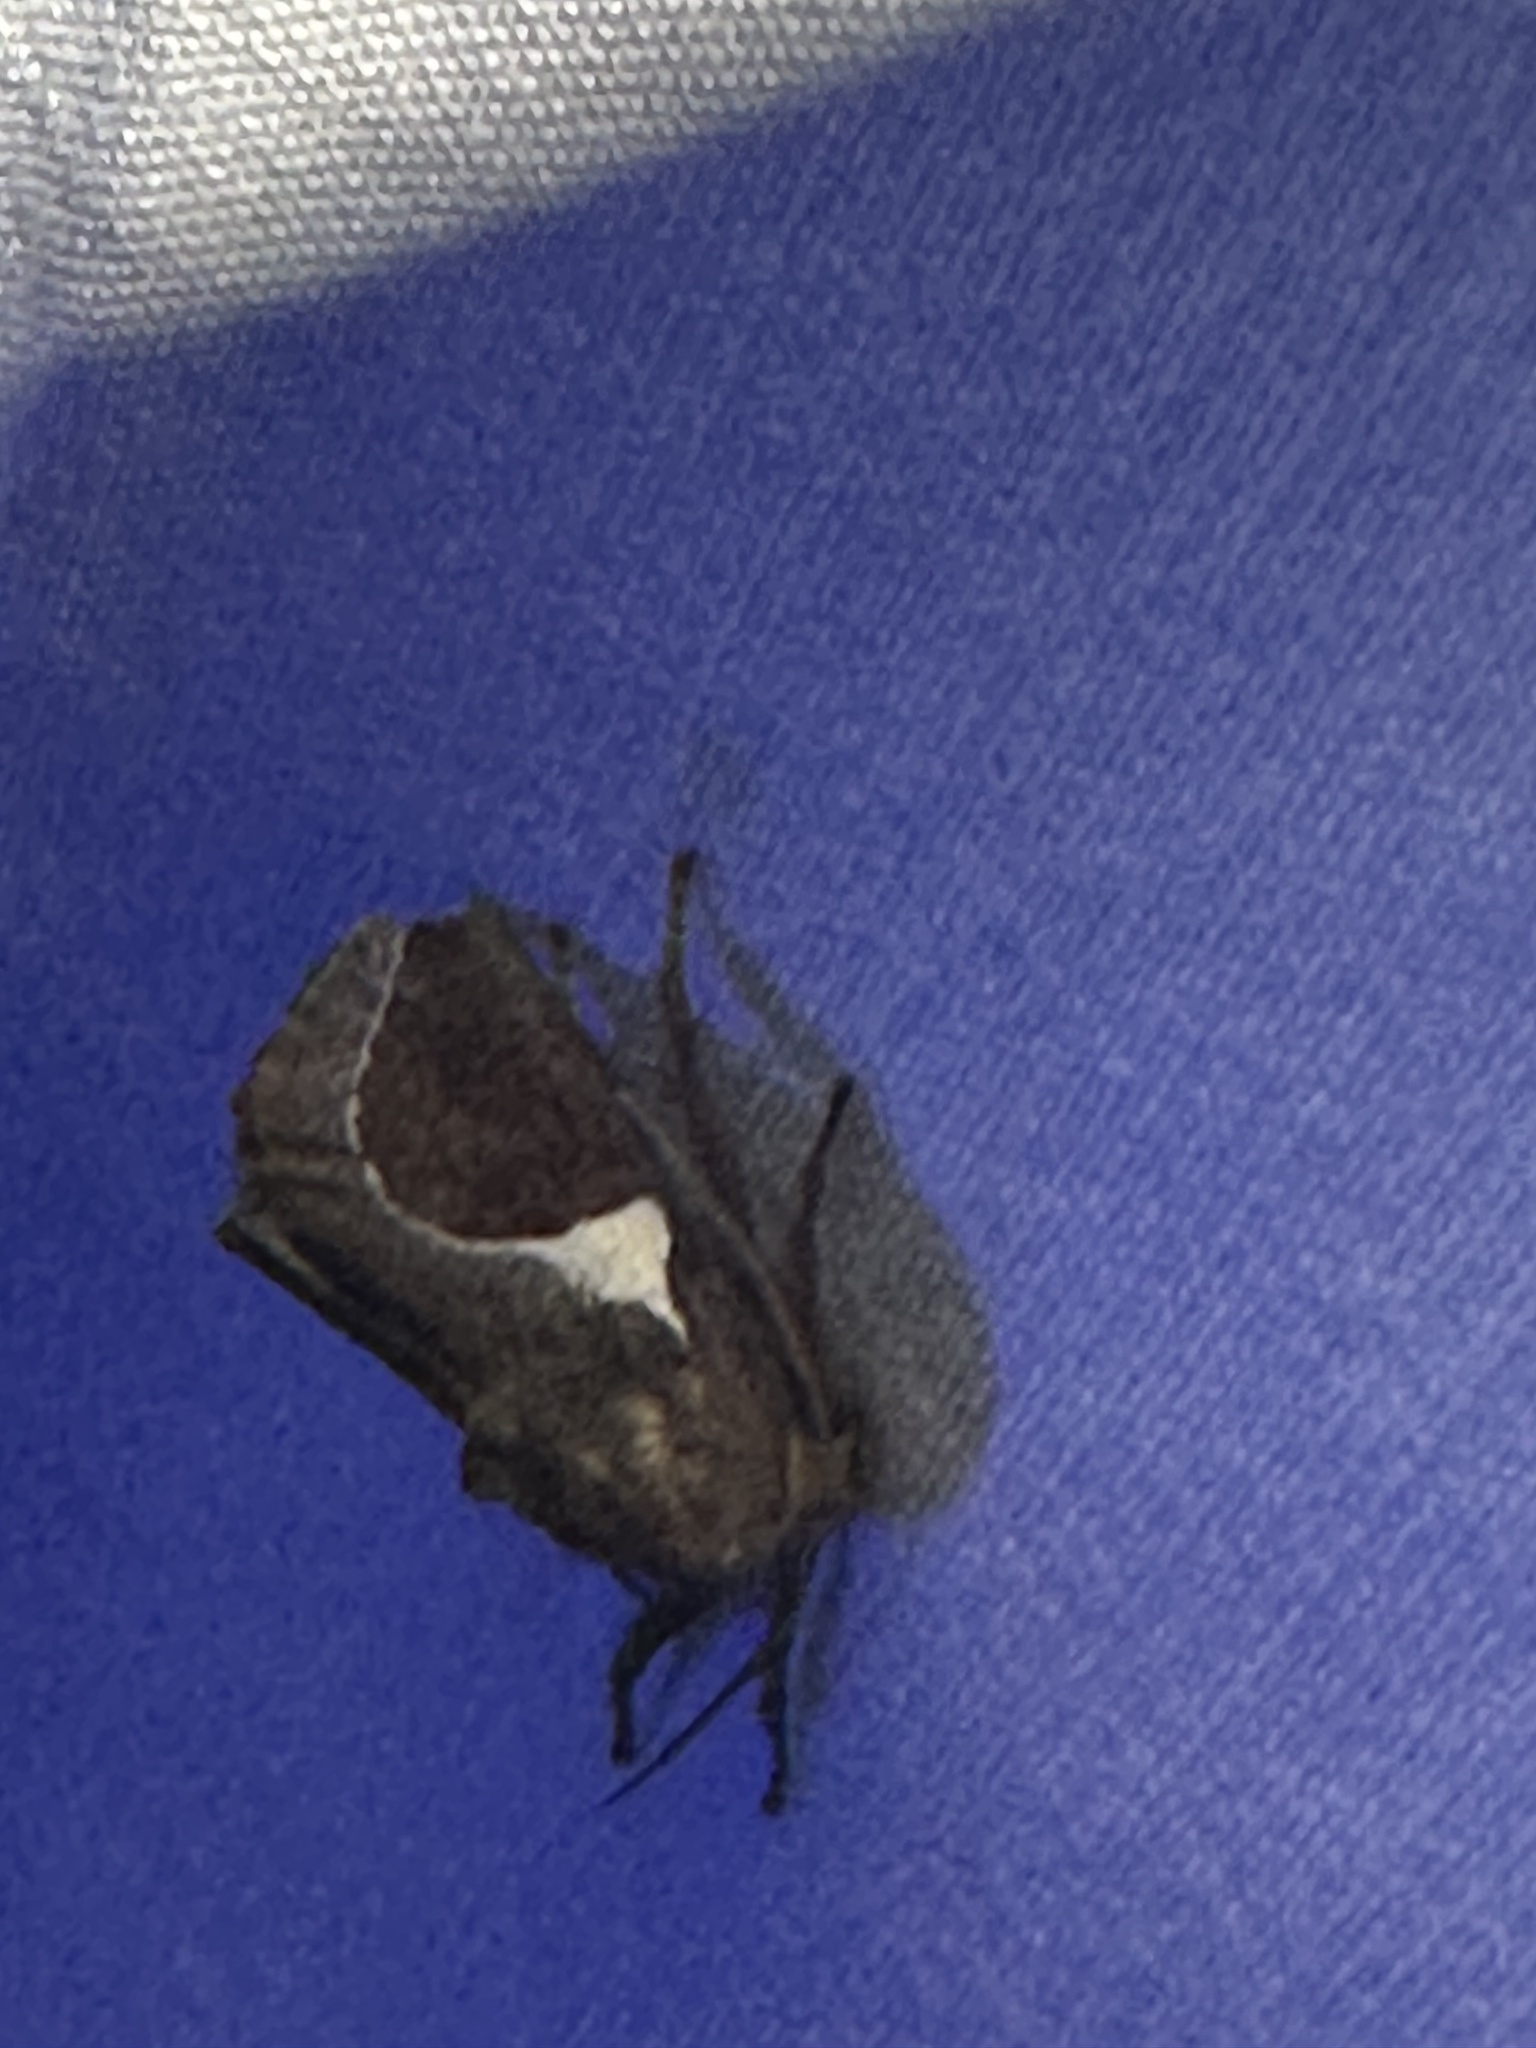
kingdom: Animalia
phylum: Arthropoda
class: Insecta
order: Lepidoptera
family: Limacodidae
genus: Prolimacodes
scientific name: Prolimacodes badia
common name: Skiff moth
